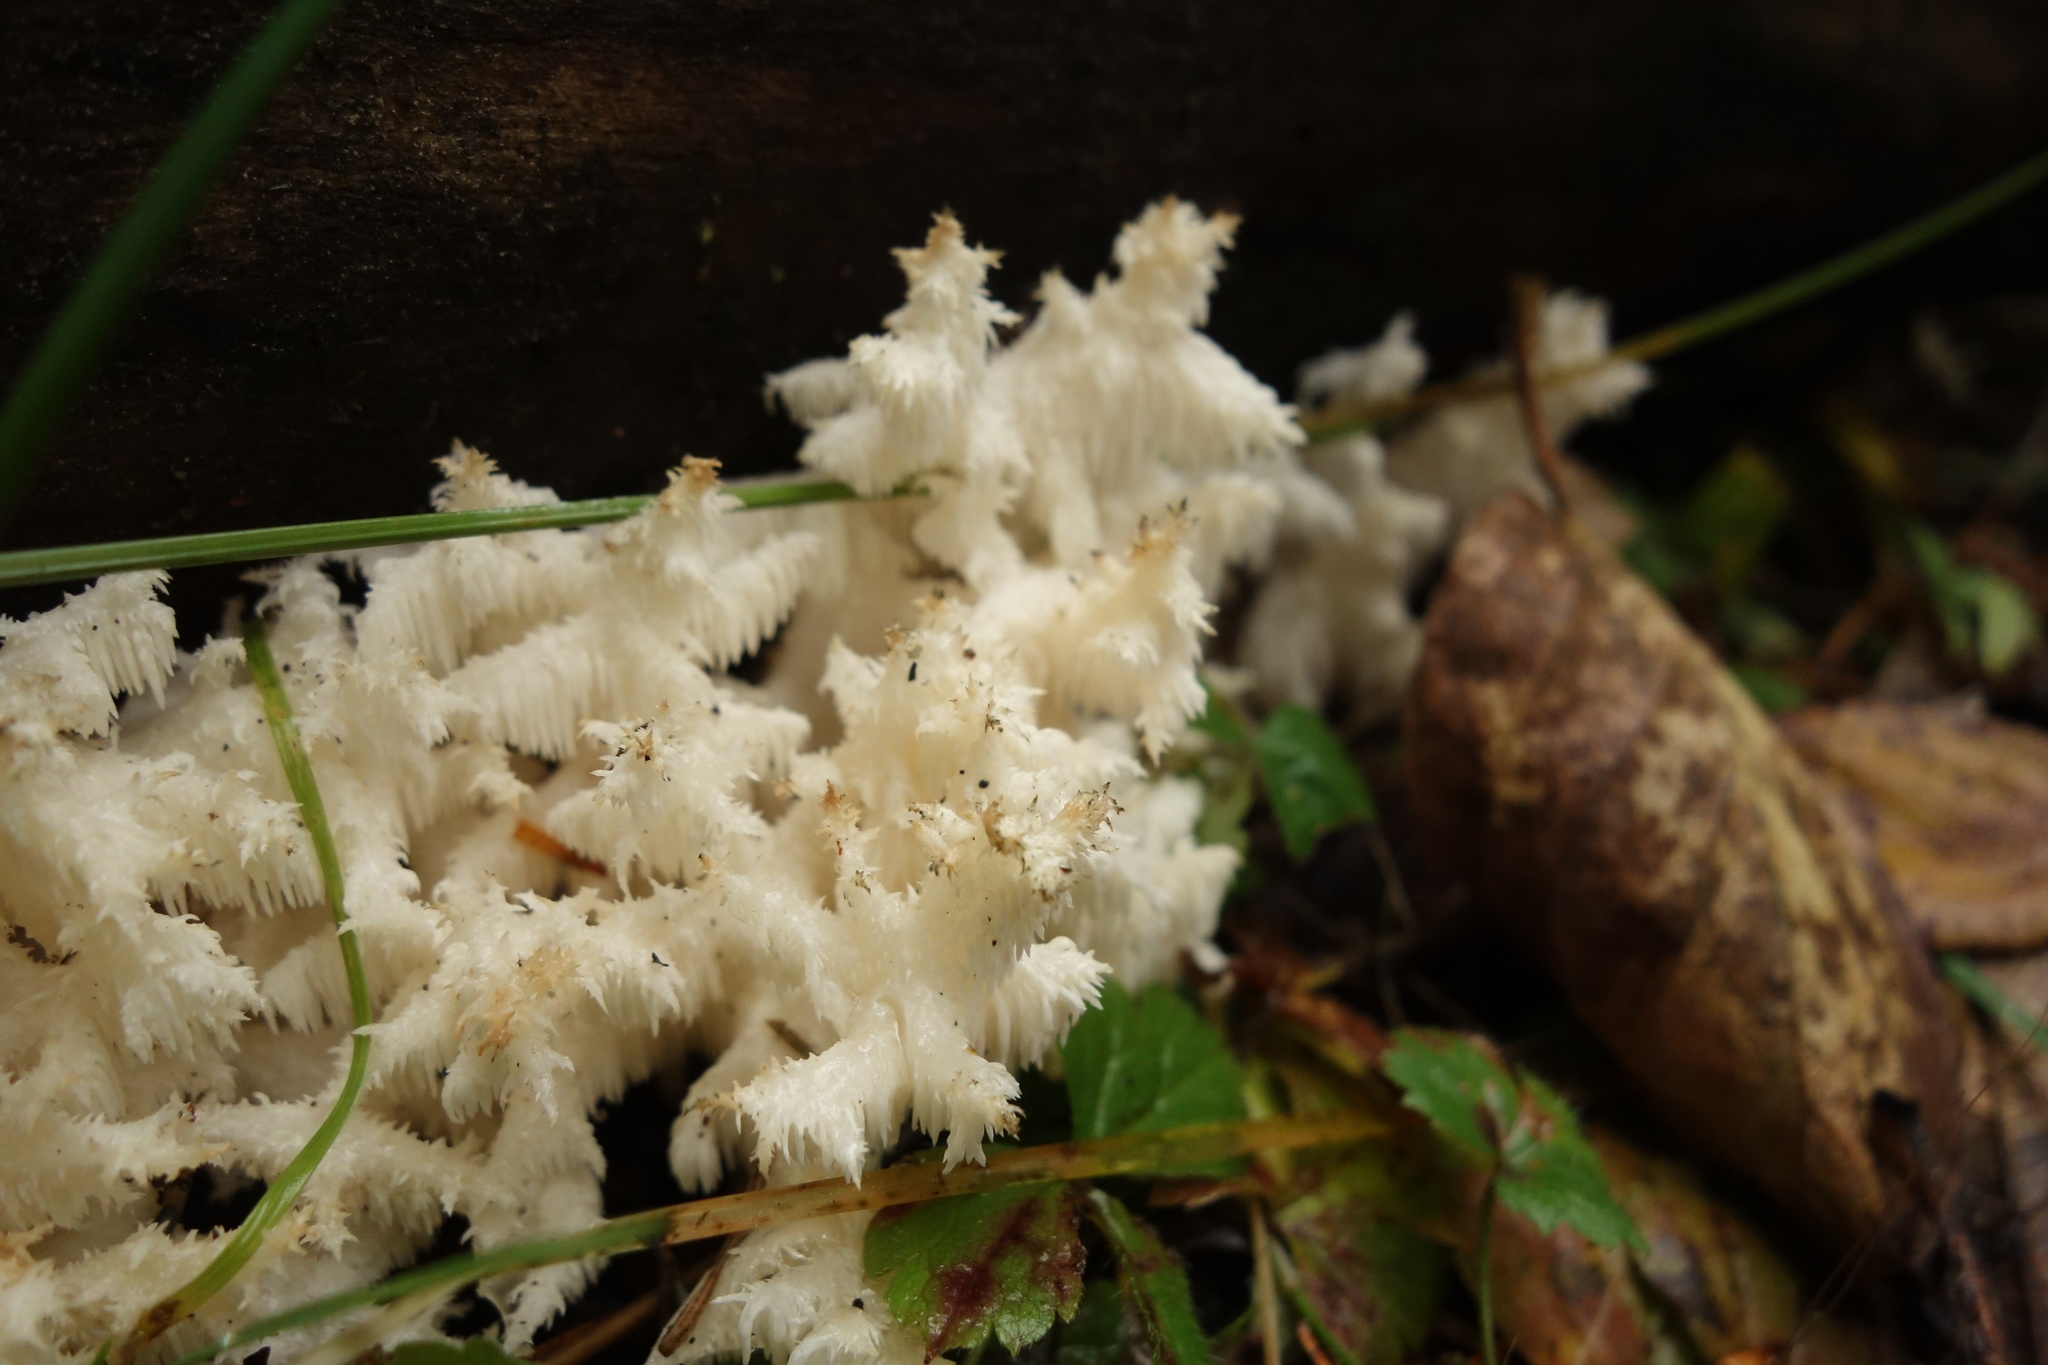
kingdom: Fungi
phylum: Basidiomycota
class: Agaricomycetes
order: Russulales
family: Hericiaceae
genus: Hericium
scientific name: Hericium coralloides
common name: Coral tooth
